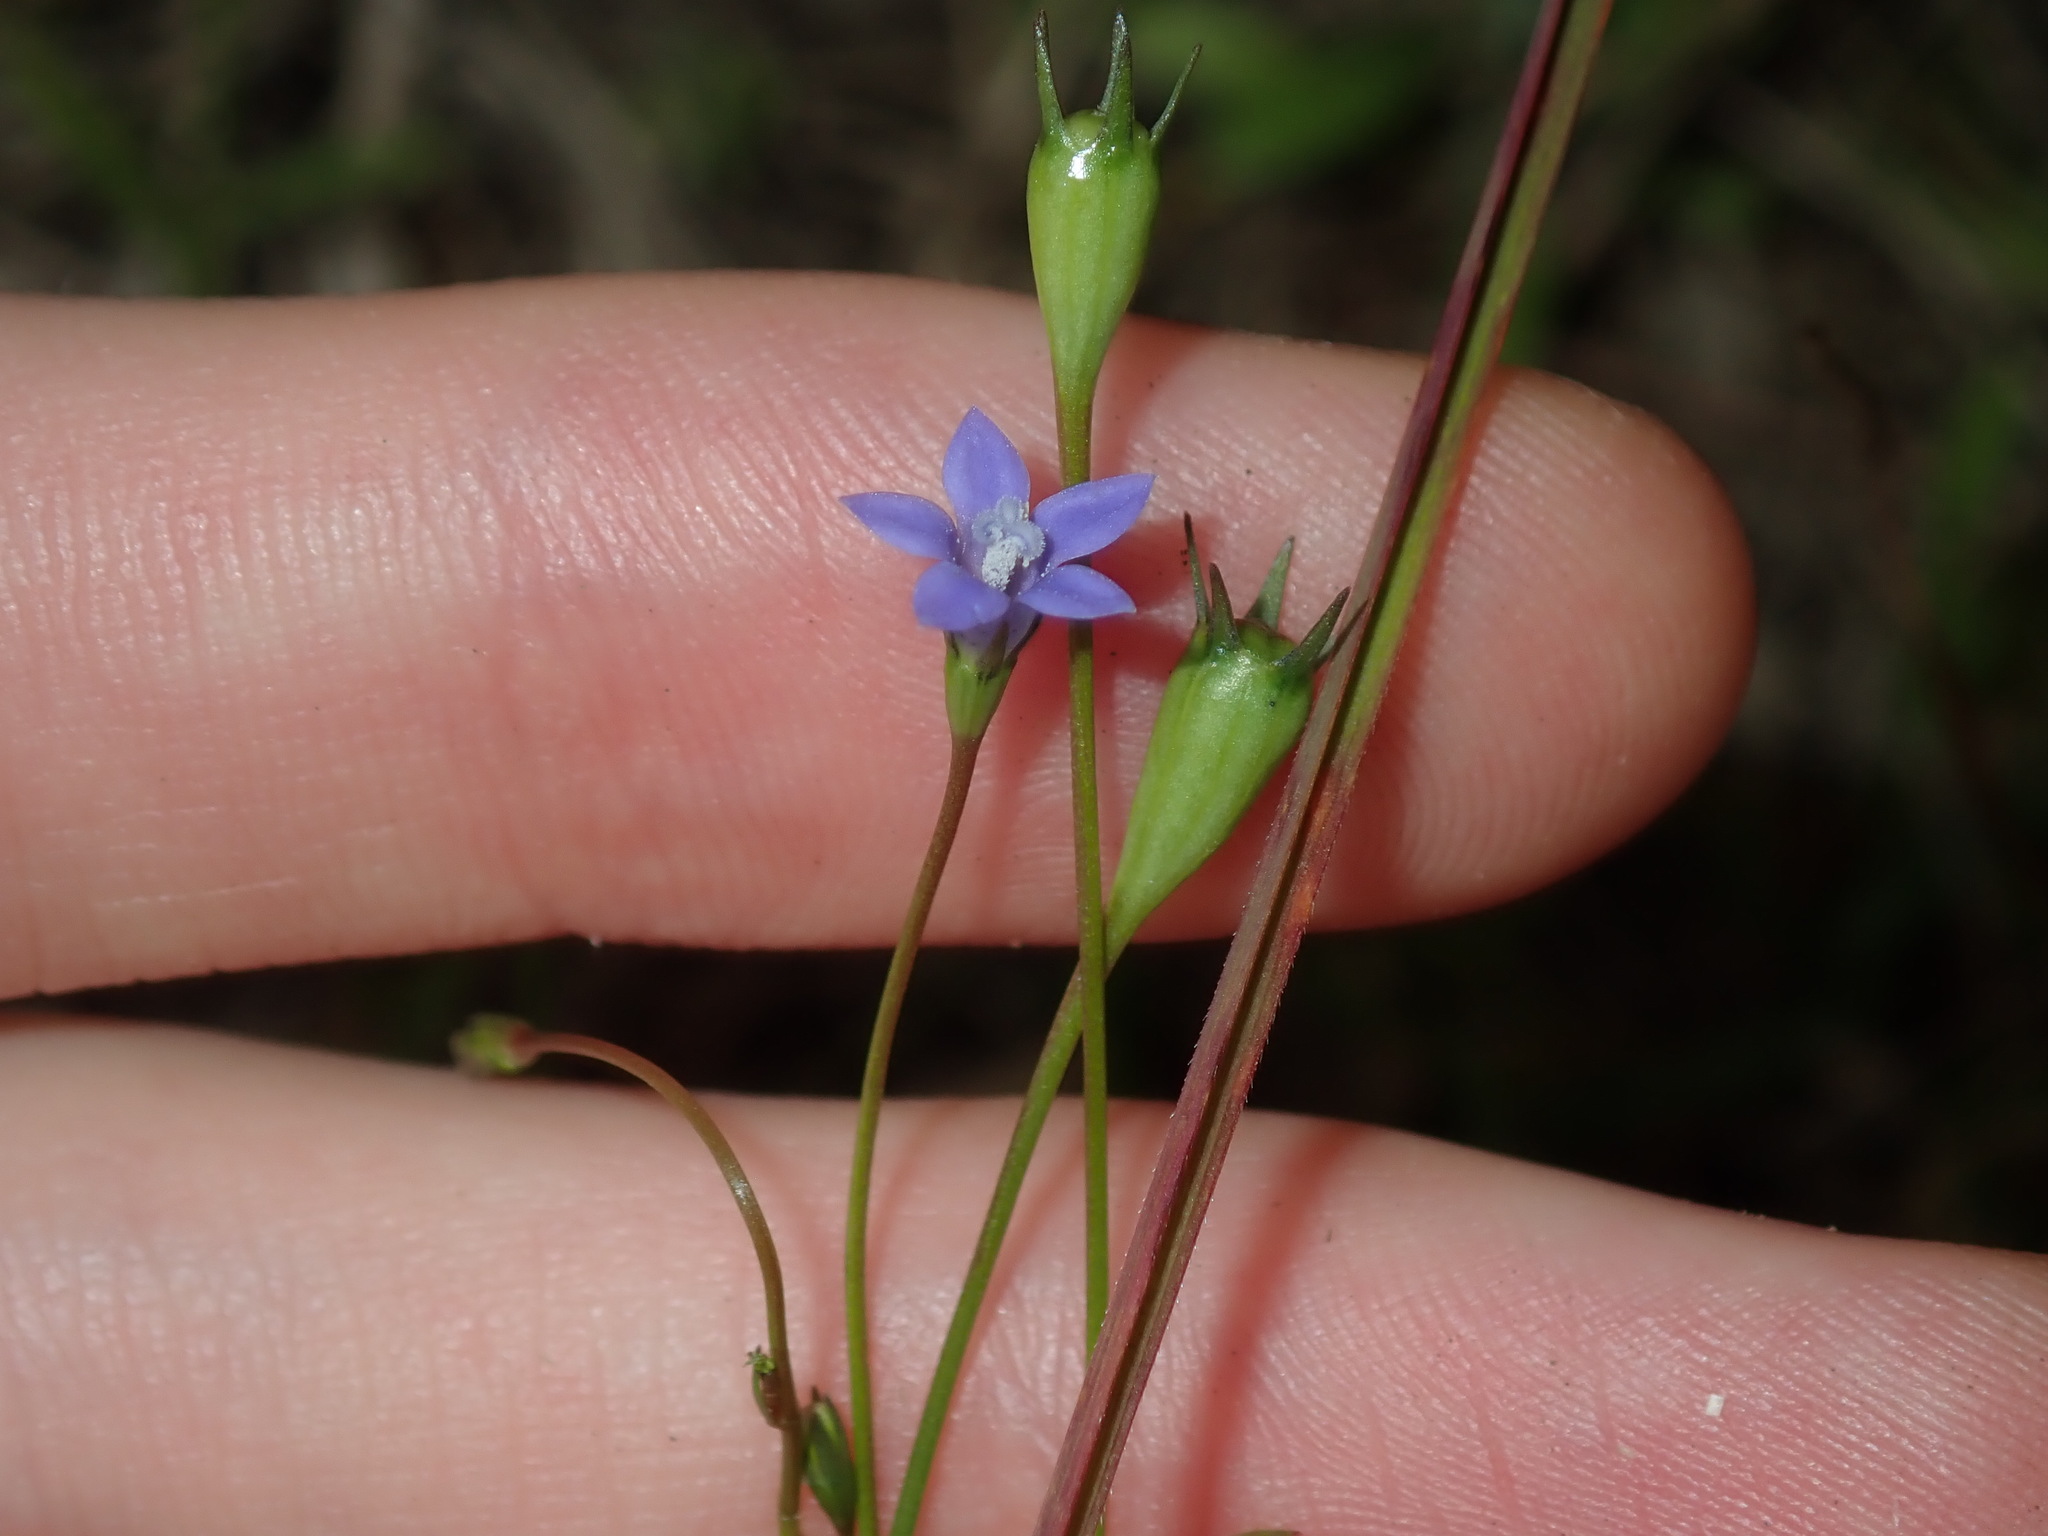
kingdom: Plantae
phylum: Tracheophyta
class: Magnoliopsida
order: Asterales
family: Campanulaceae
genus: Wahlenbergia
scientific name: Wahlenbergia gracilis
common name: Harebell
